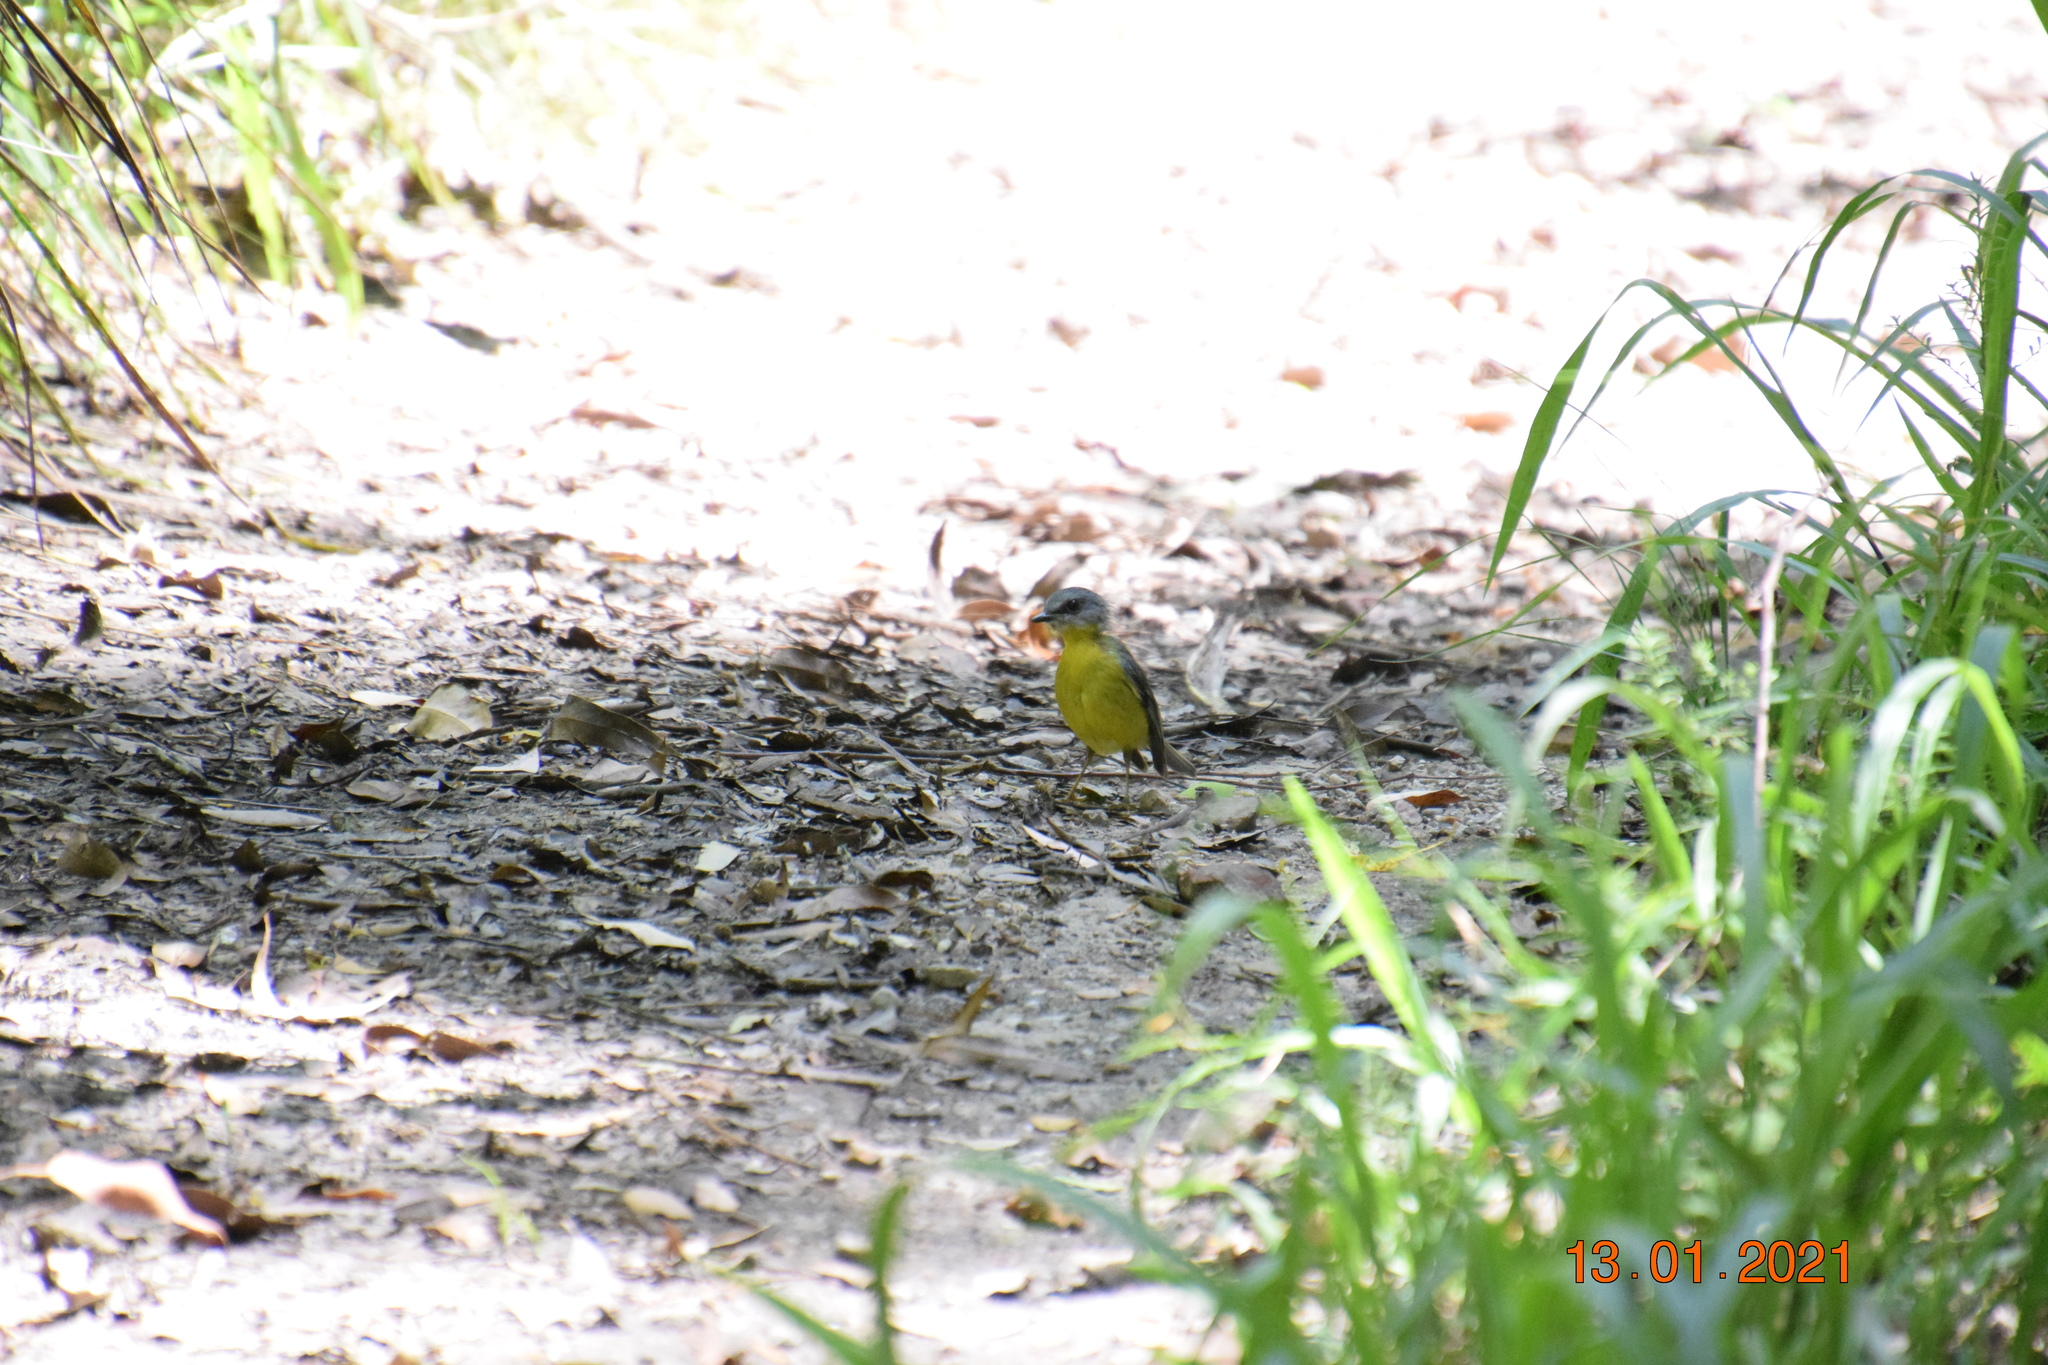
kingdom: Animalia
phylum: Chordata
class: Aves
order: Passeriformes
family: Petroicidae
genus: Eopsaltria
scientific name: Eopsaltria australis
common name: Eastern yellow robin
